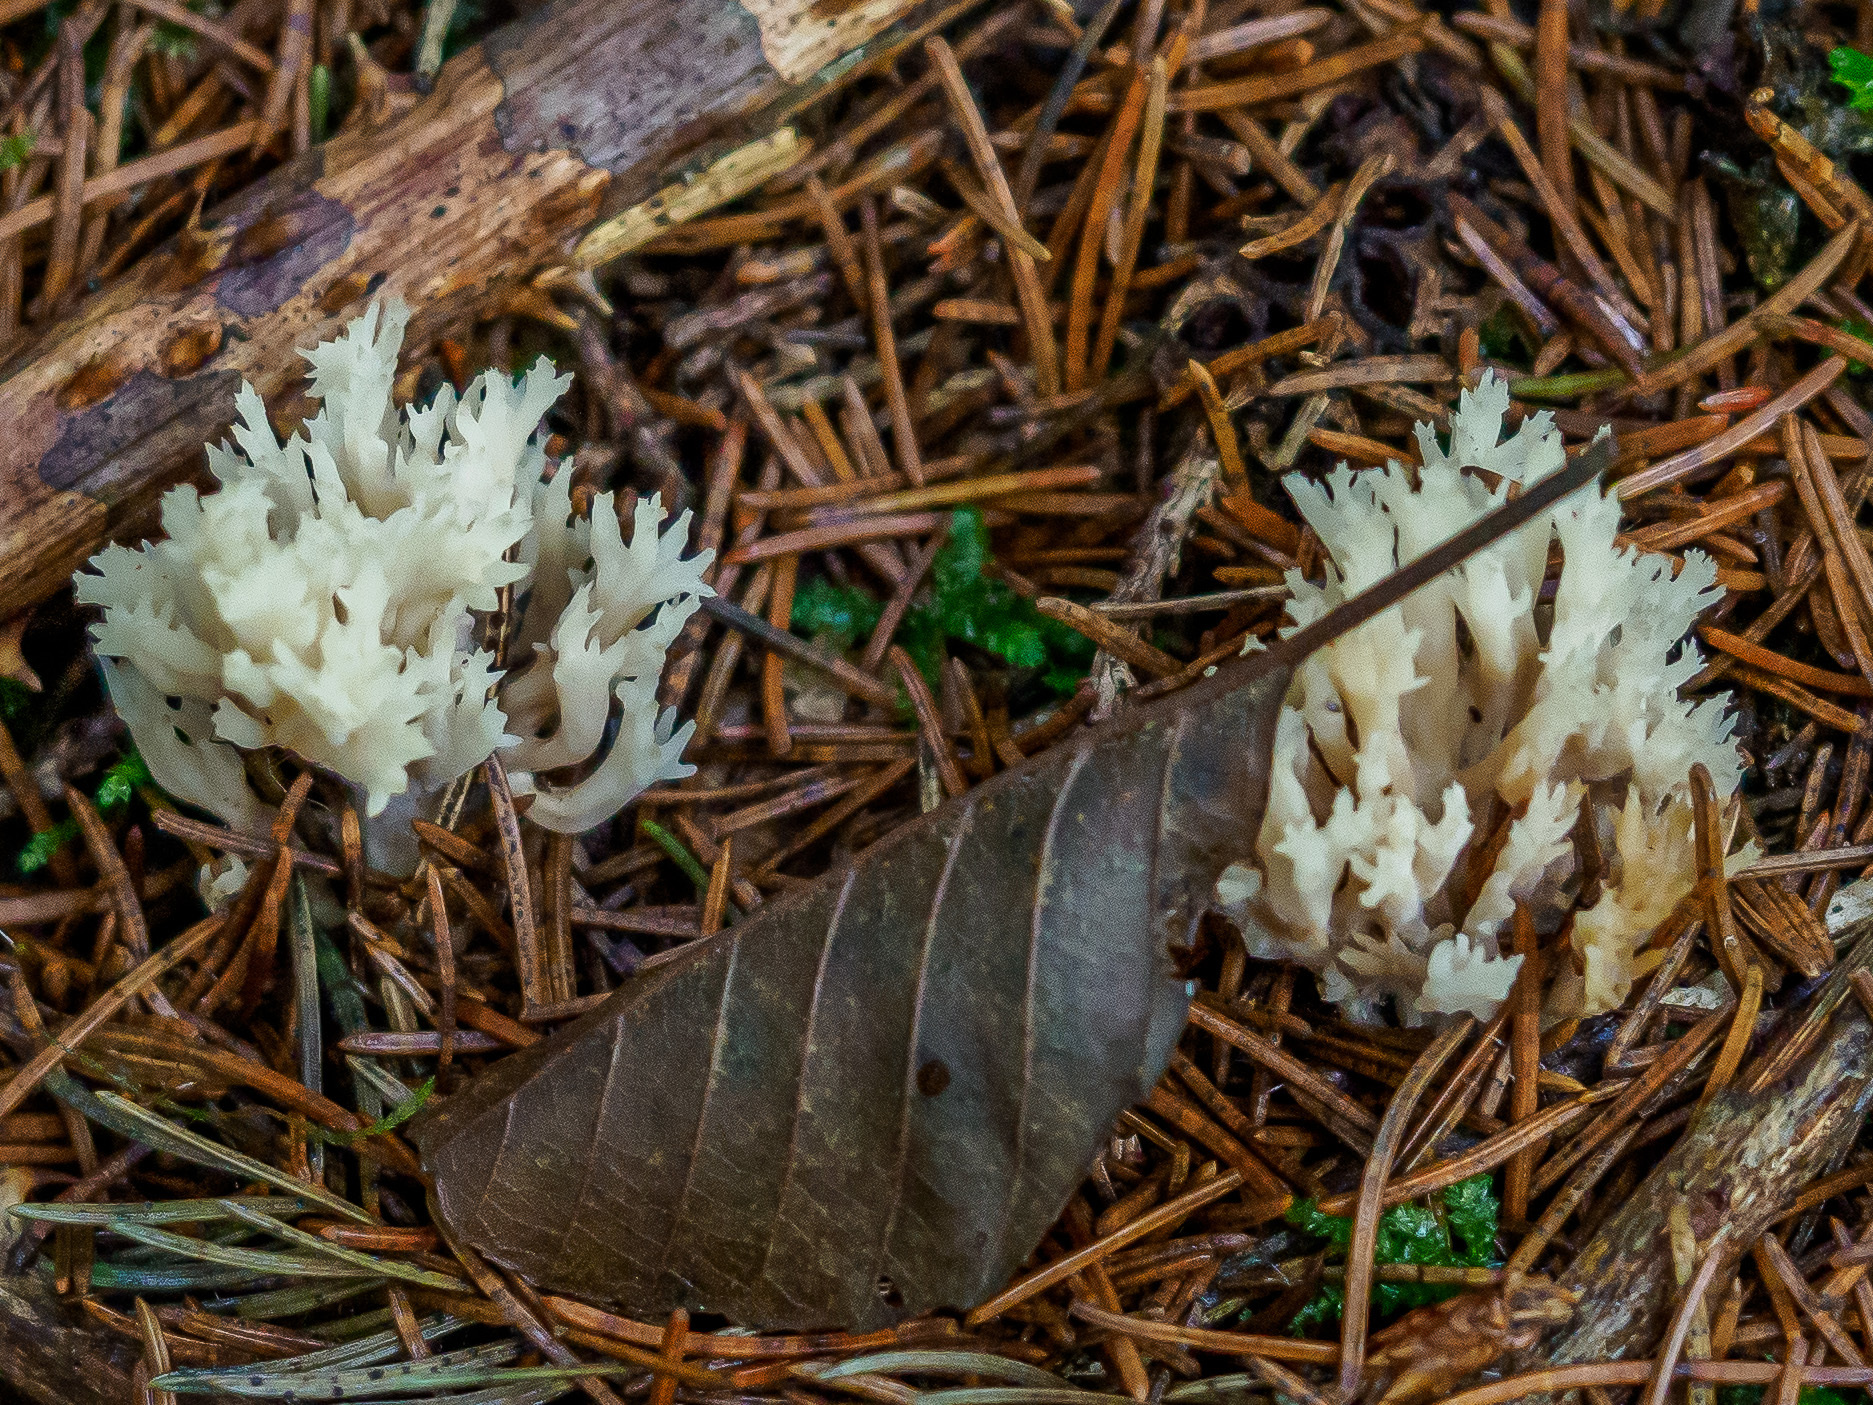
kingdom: Fungi
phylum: Basidiomycota
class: Agaricomycetes
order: Cantharellales
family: Hydnaceae
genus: Clavulina
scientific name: Clavulina coralloides
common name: Crested coral
